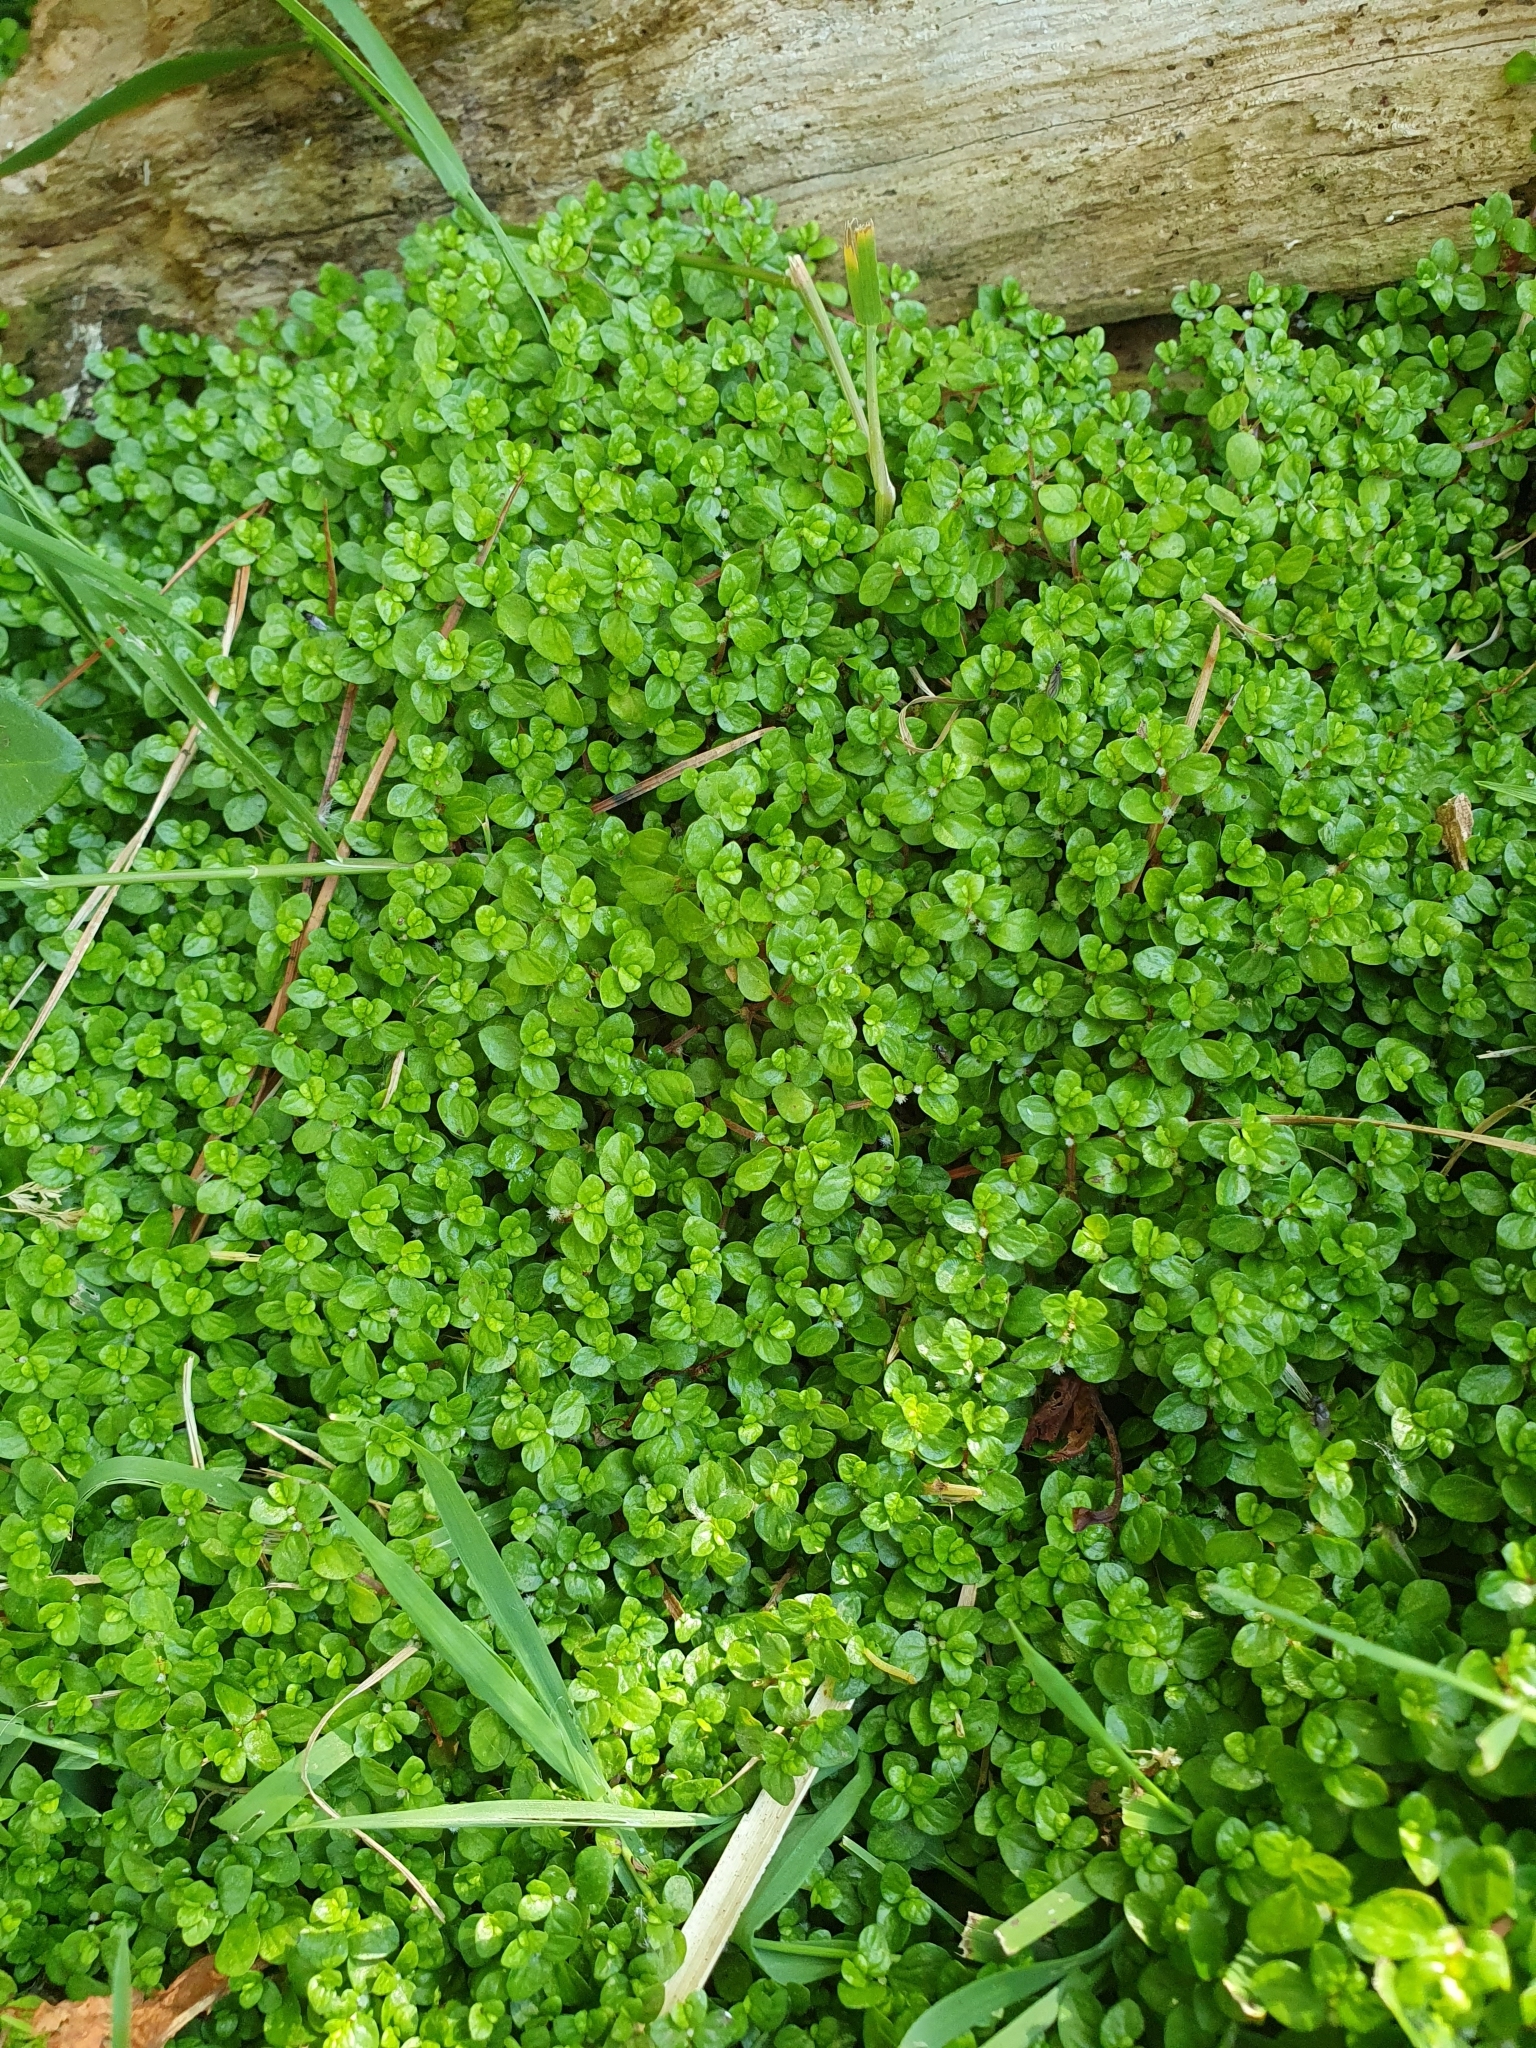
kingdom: Plantae
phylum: Tracheophyta
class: Magnoliopsida
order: Rosales
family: Urticaceae
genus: Soleirolia
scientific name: Soleirolia soleirolii
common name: Mind-your-own-business
